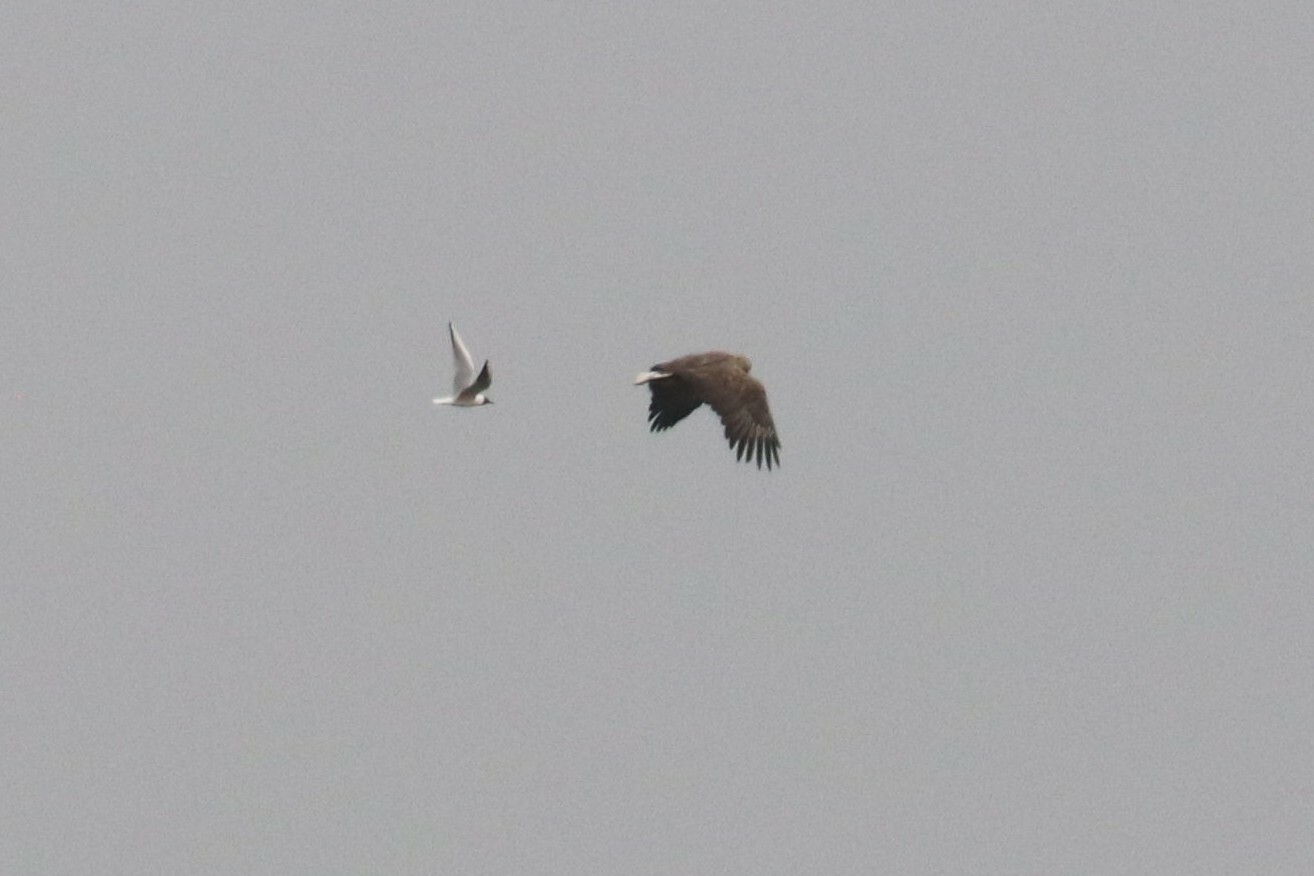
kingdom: Animalia
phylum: Chordata
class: Aves
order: Accipitriformes
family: Accipitridae
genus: Haliaeetus
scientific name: Haliaeetus albicilla
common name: White-tailed eagle
